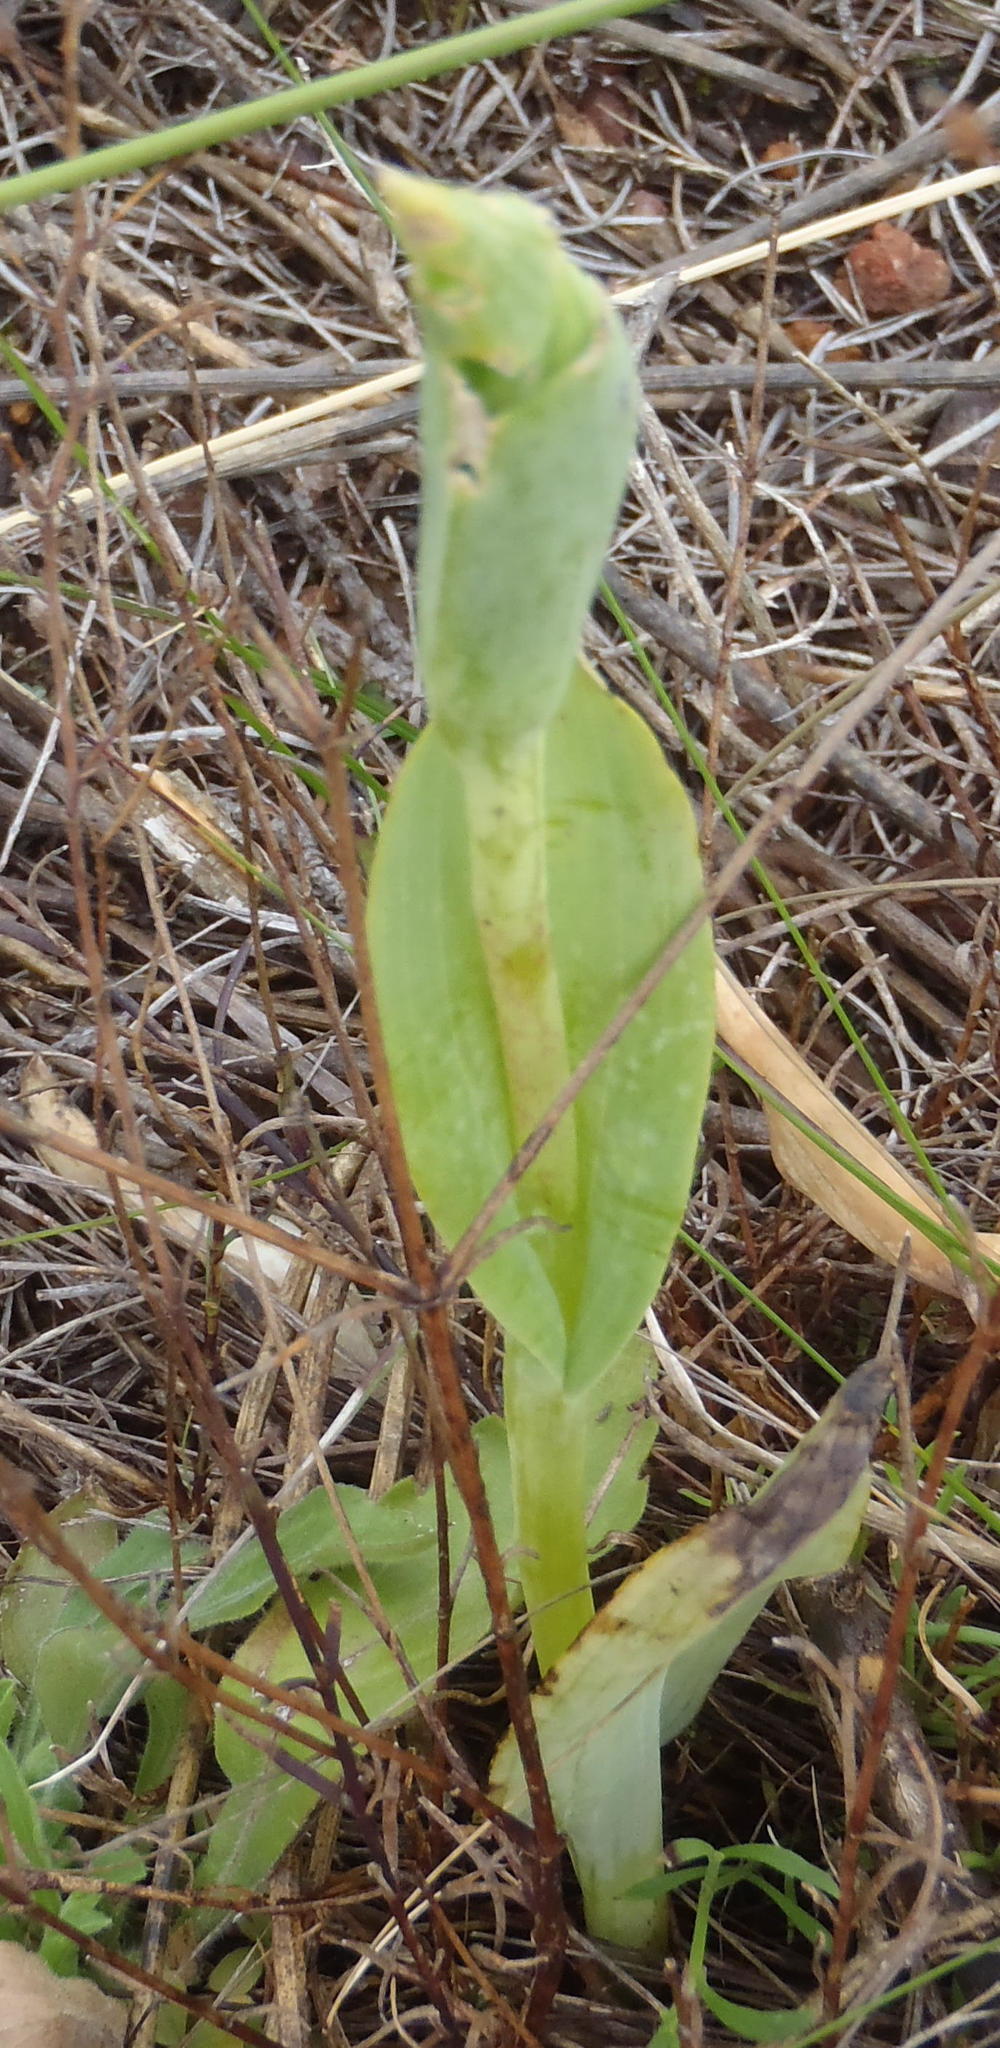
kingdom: Plantae
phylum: Tracheophyta
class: Liliopsida
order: Asparagales
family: Orchidaceae
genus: Pterygodium
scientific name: Pterygodium cleistogamum
